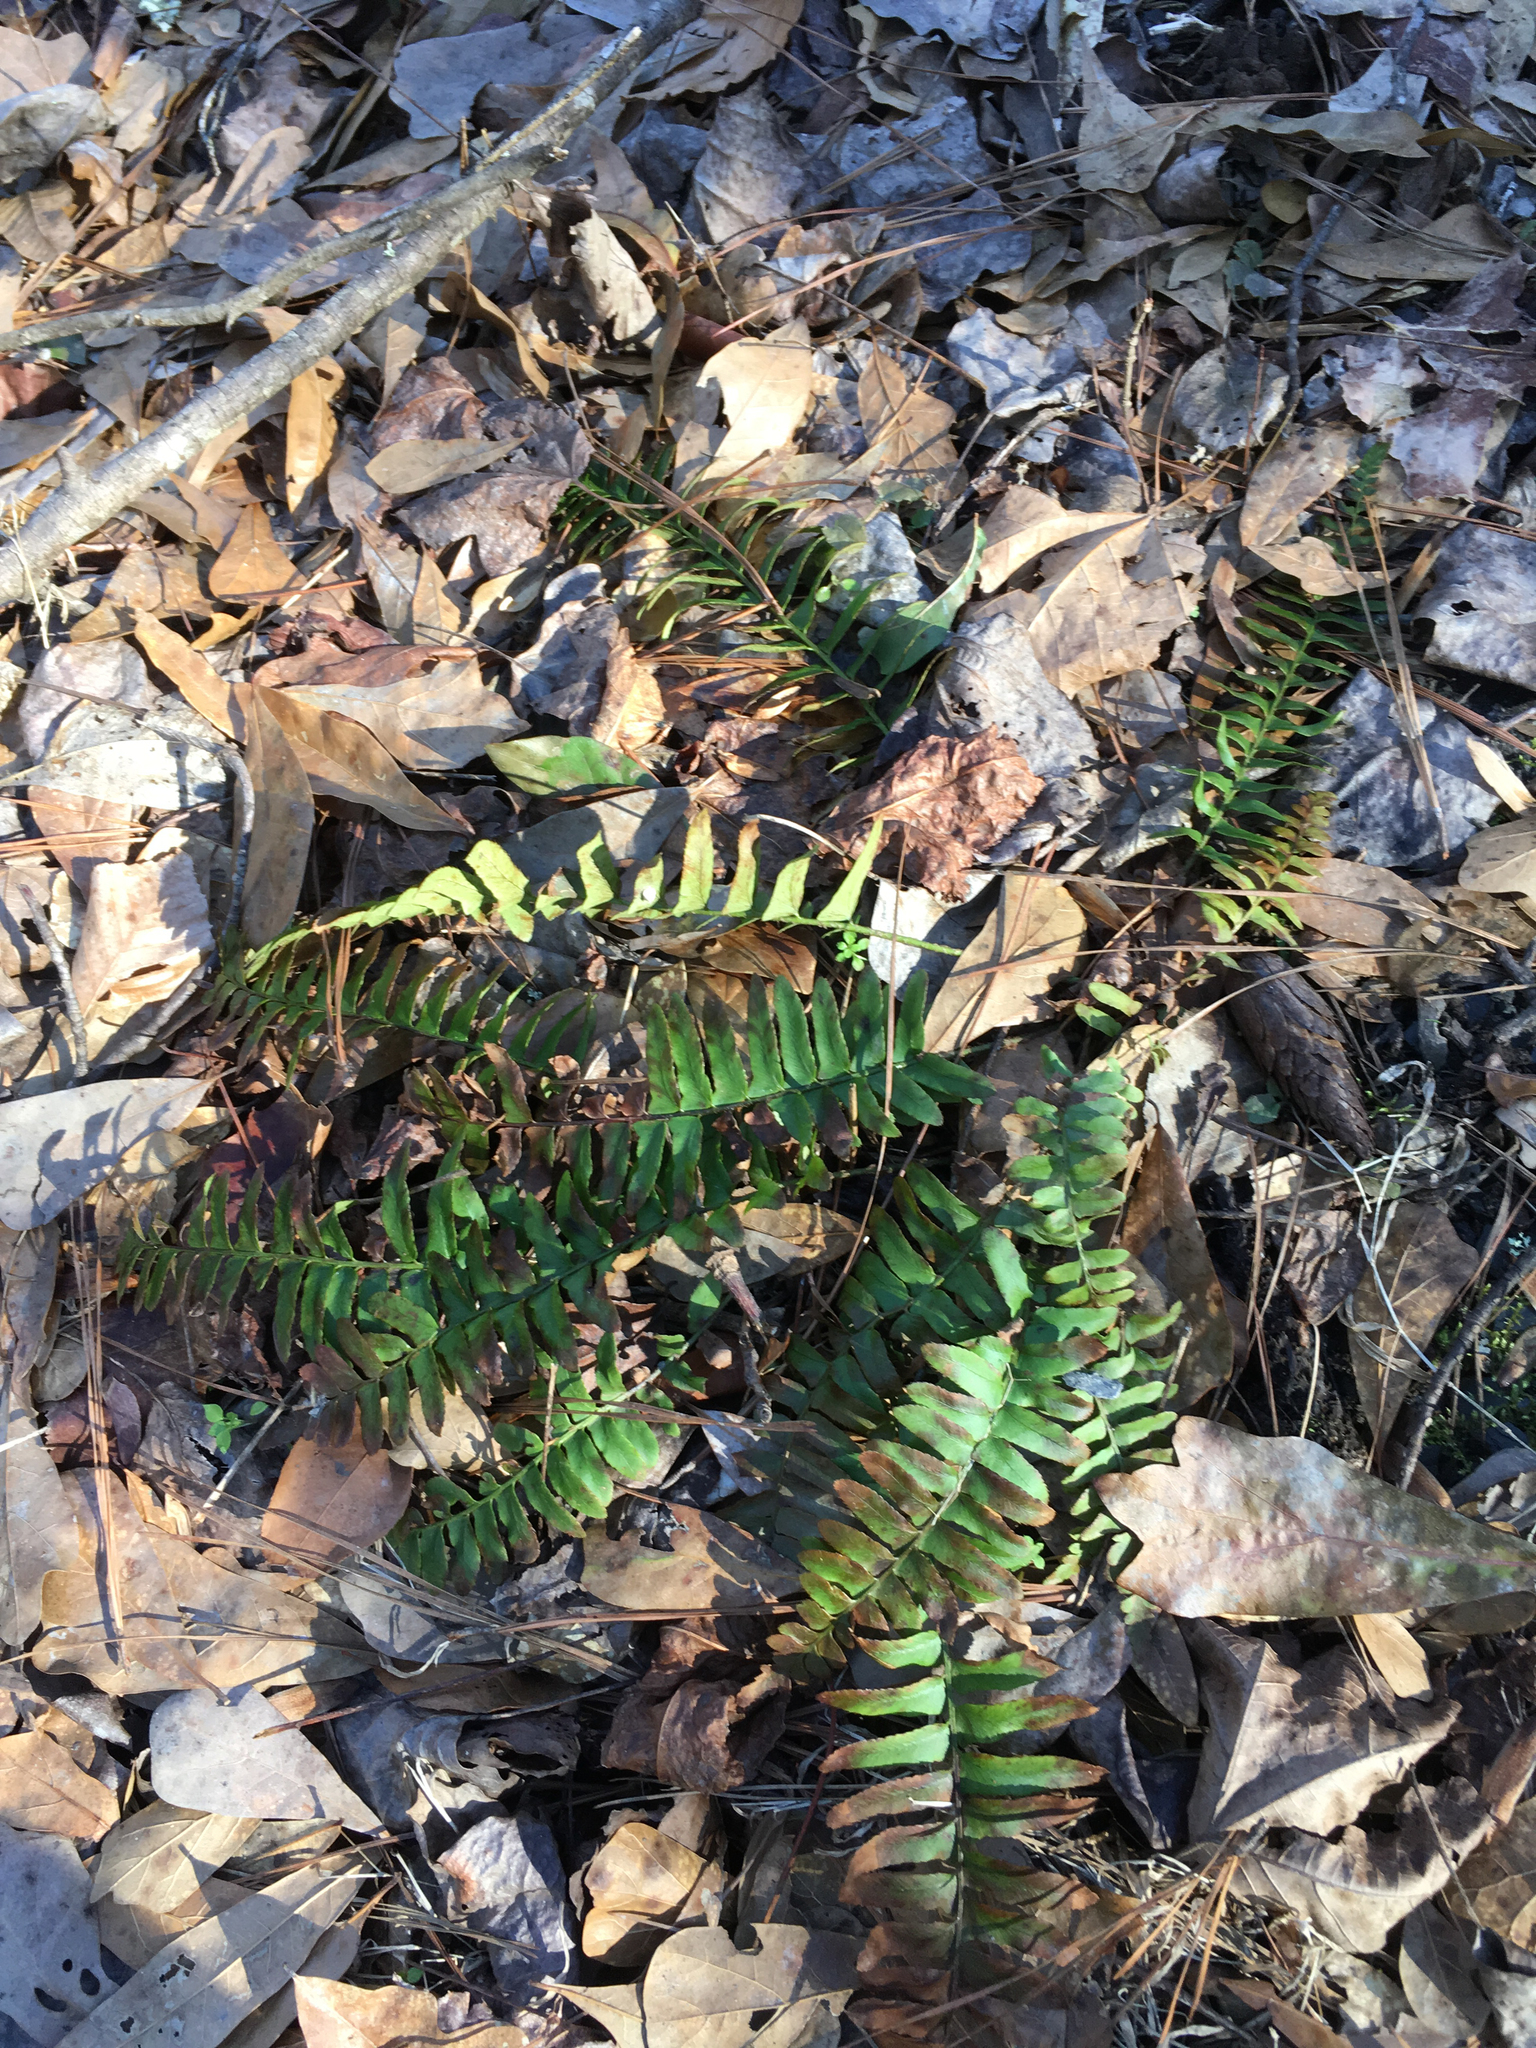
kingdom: Plantae
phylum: Tracheophyta
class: Polypodiopsida
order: Polypodiales
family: Dryopteridaceae
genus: Polystichum
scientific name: Polystichum acrostichoides
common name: Christmas fern
